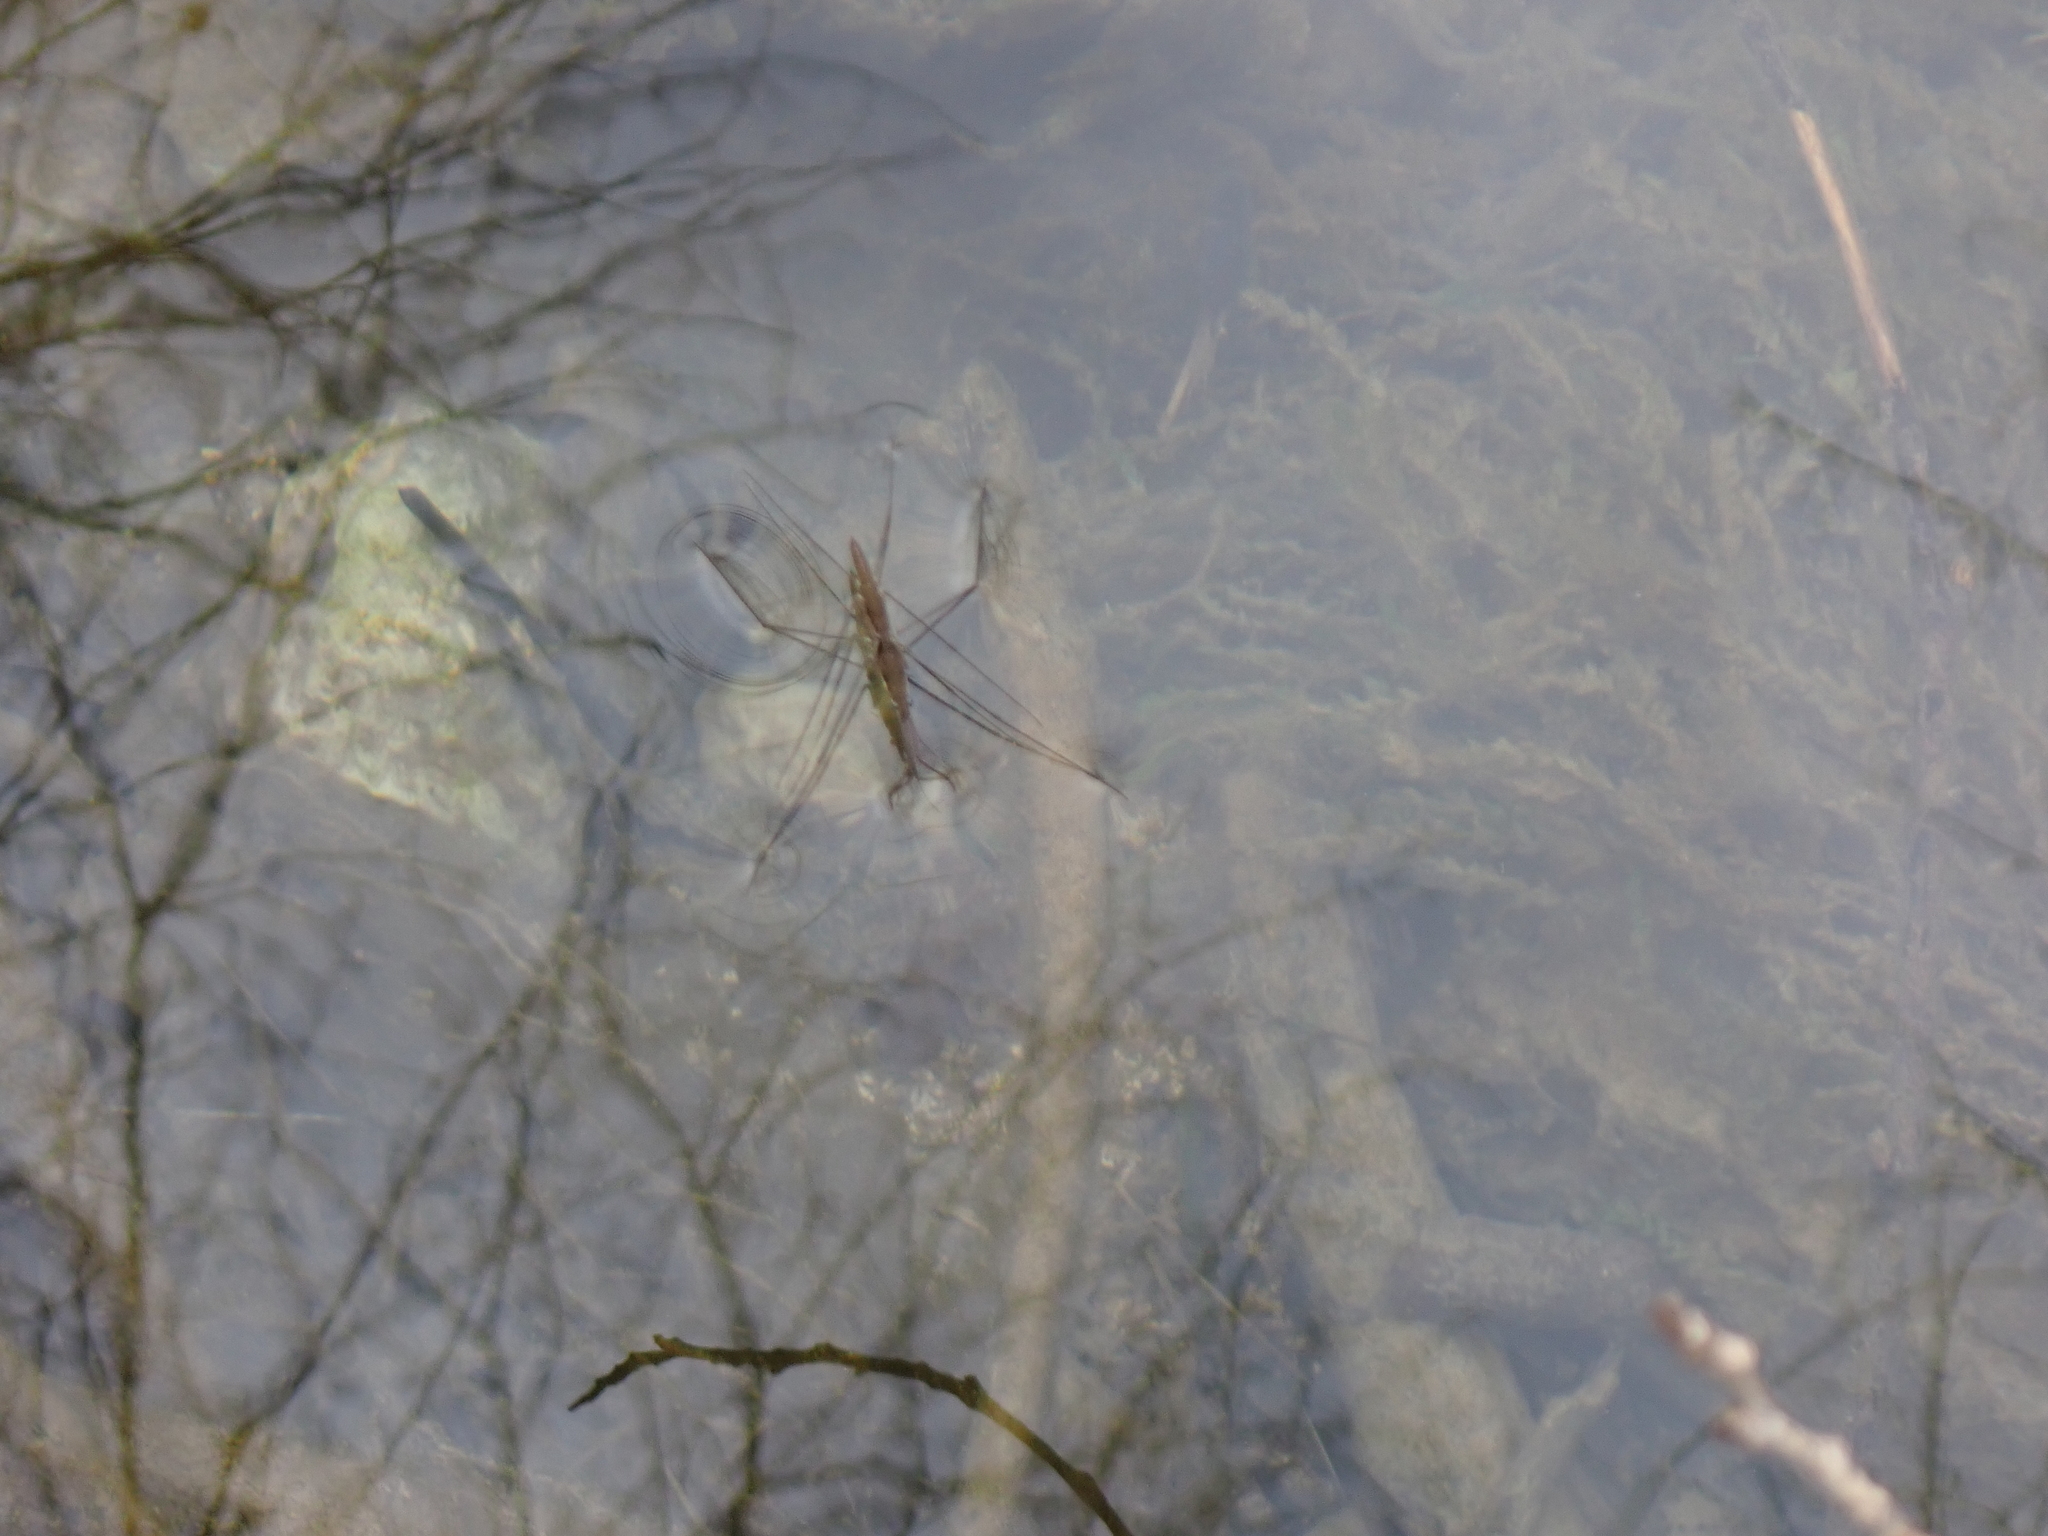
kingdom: Animalia
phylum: Arthropoda
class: Insecta
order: Hemiptera
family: Gerridae
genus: Aquarius
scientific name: Aquarius najas
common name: River skater
